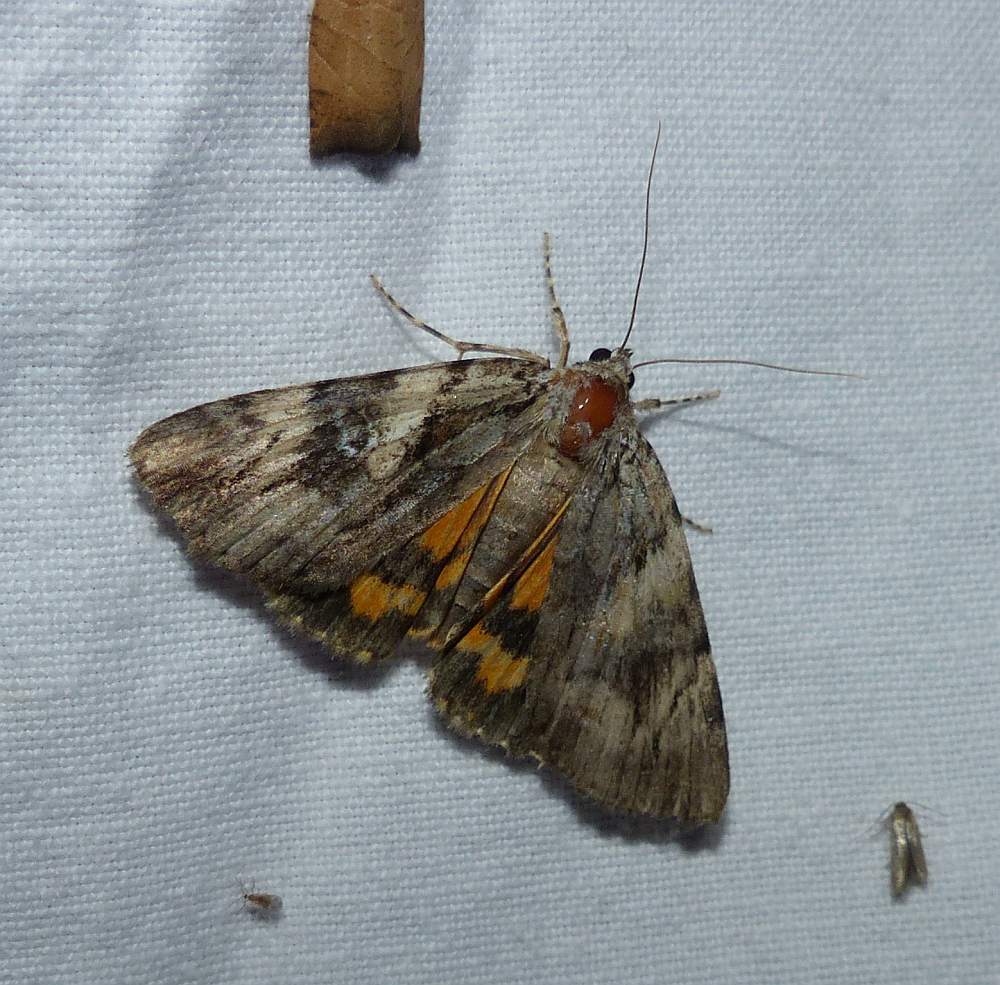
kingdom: Animalia
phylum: Arthropoda
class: Insecta
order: Lepidoptera
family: Erebidae
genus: Catocala
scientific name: Catocala blandula
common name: Charming underwing
